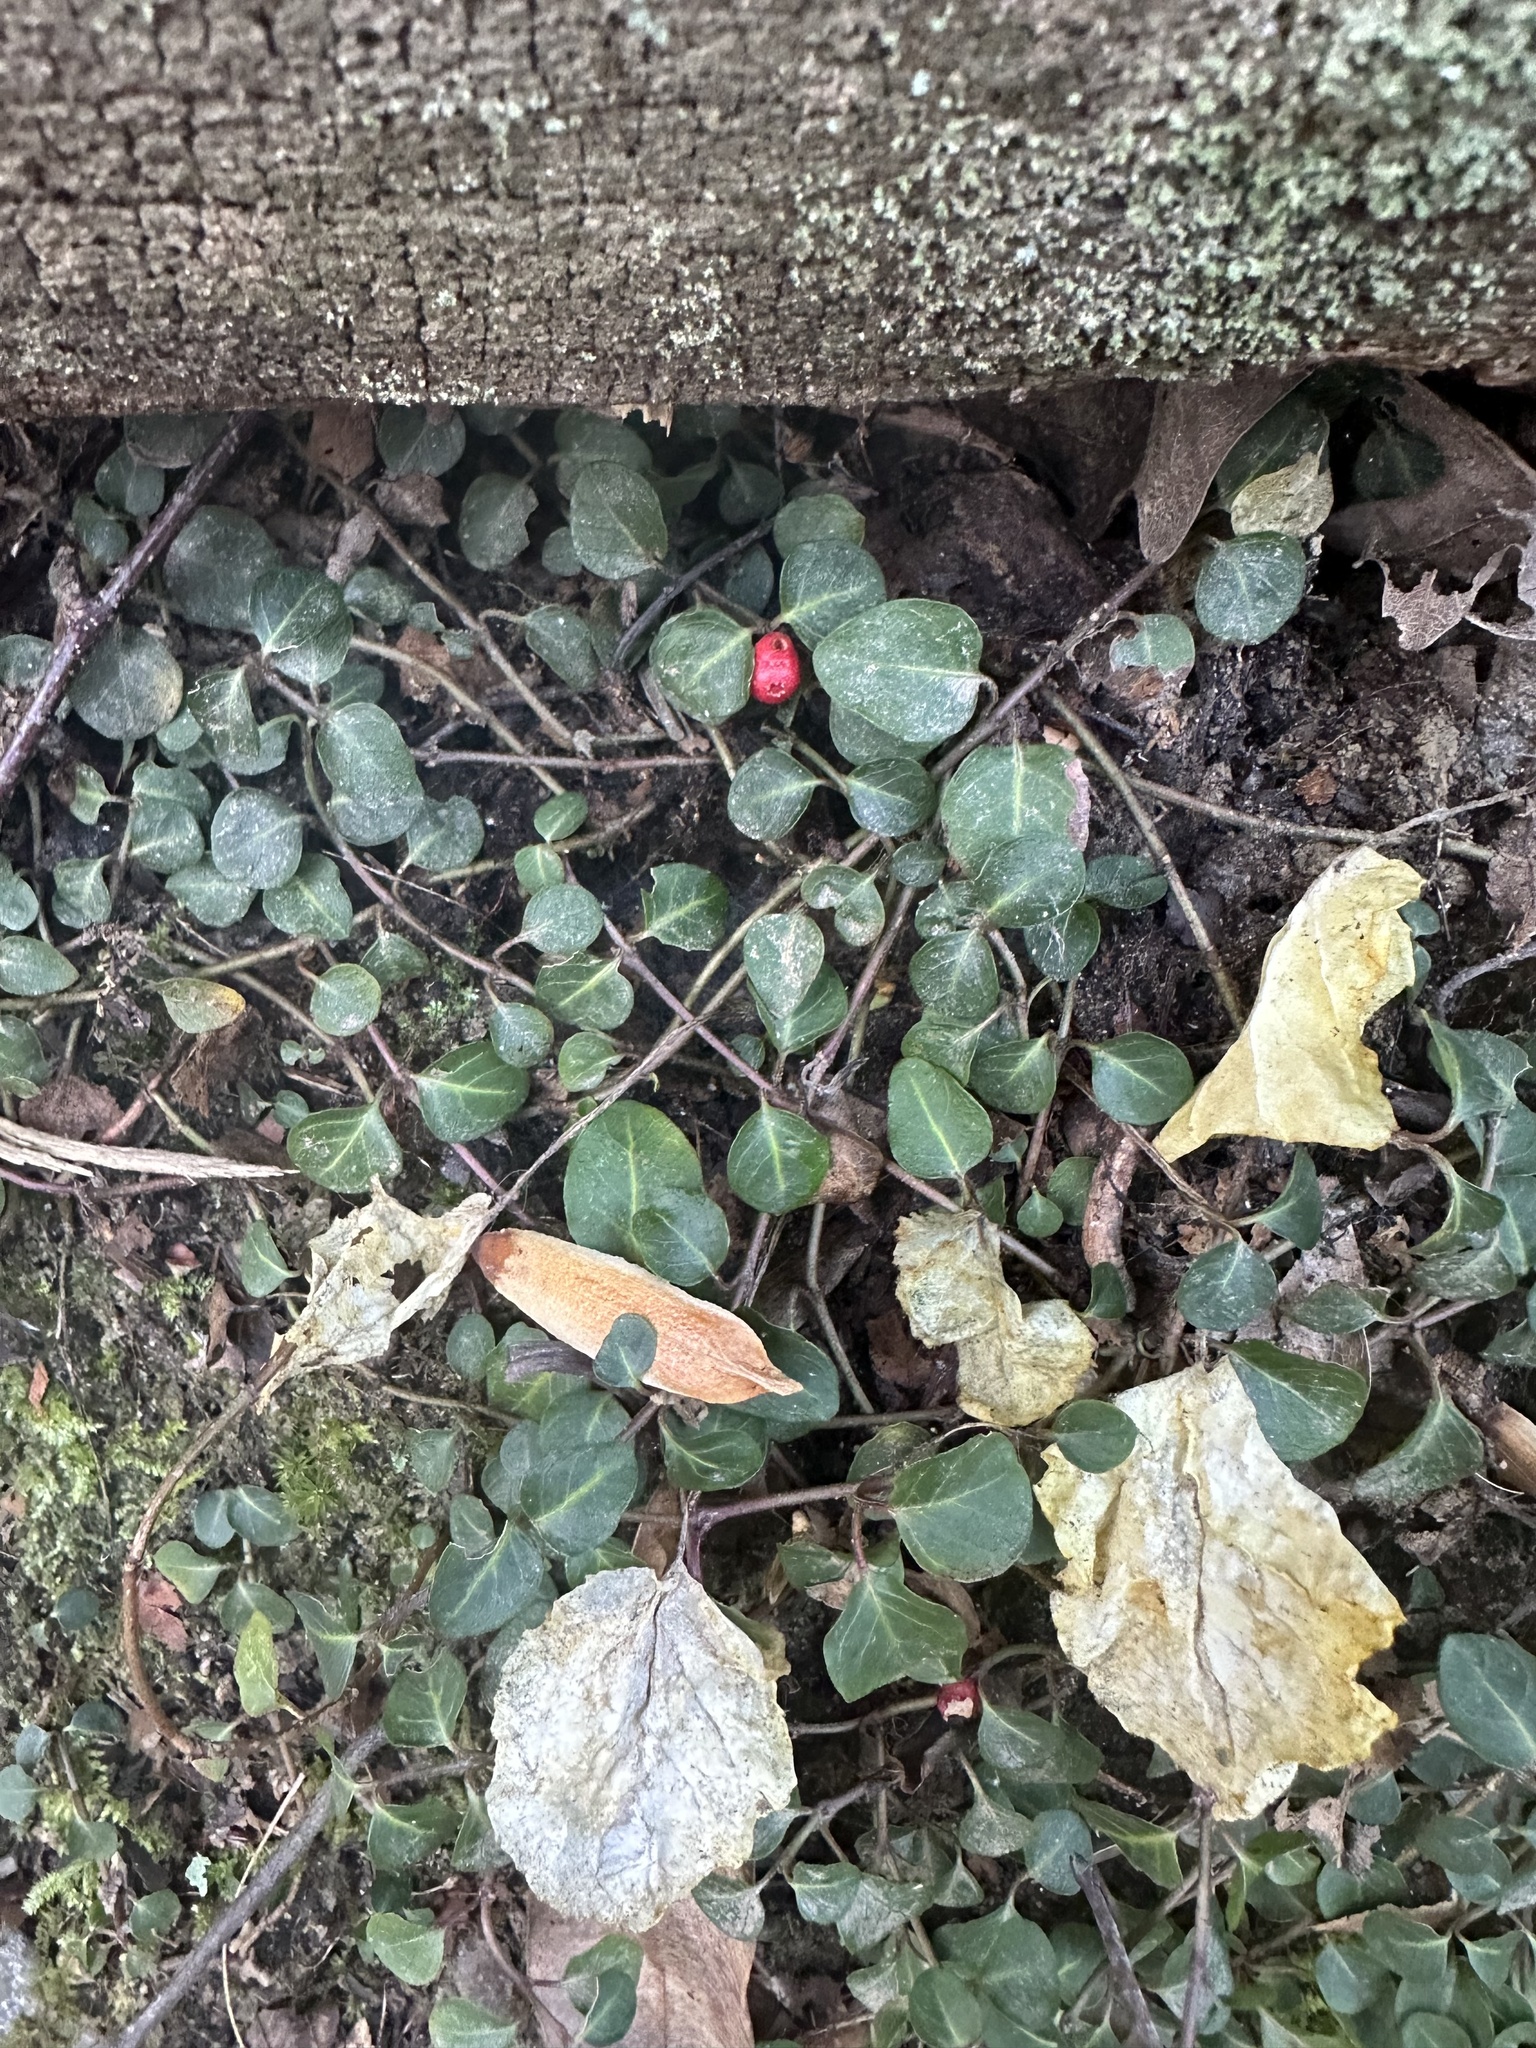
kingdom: Plantae
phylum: Tracheophyta
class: Magnoliopsida
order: Gentianales
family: Rubiaceae
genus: Mitchella
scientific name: Mitchella repens
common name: Partridge-berry
